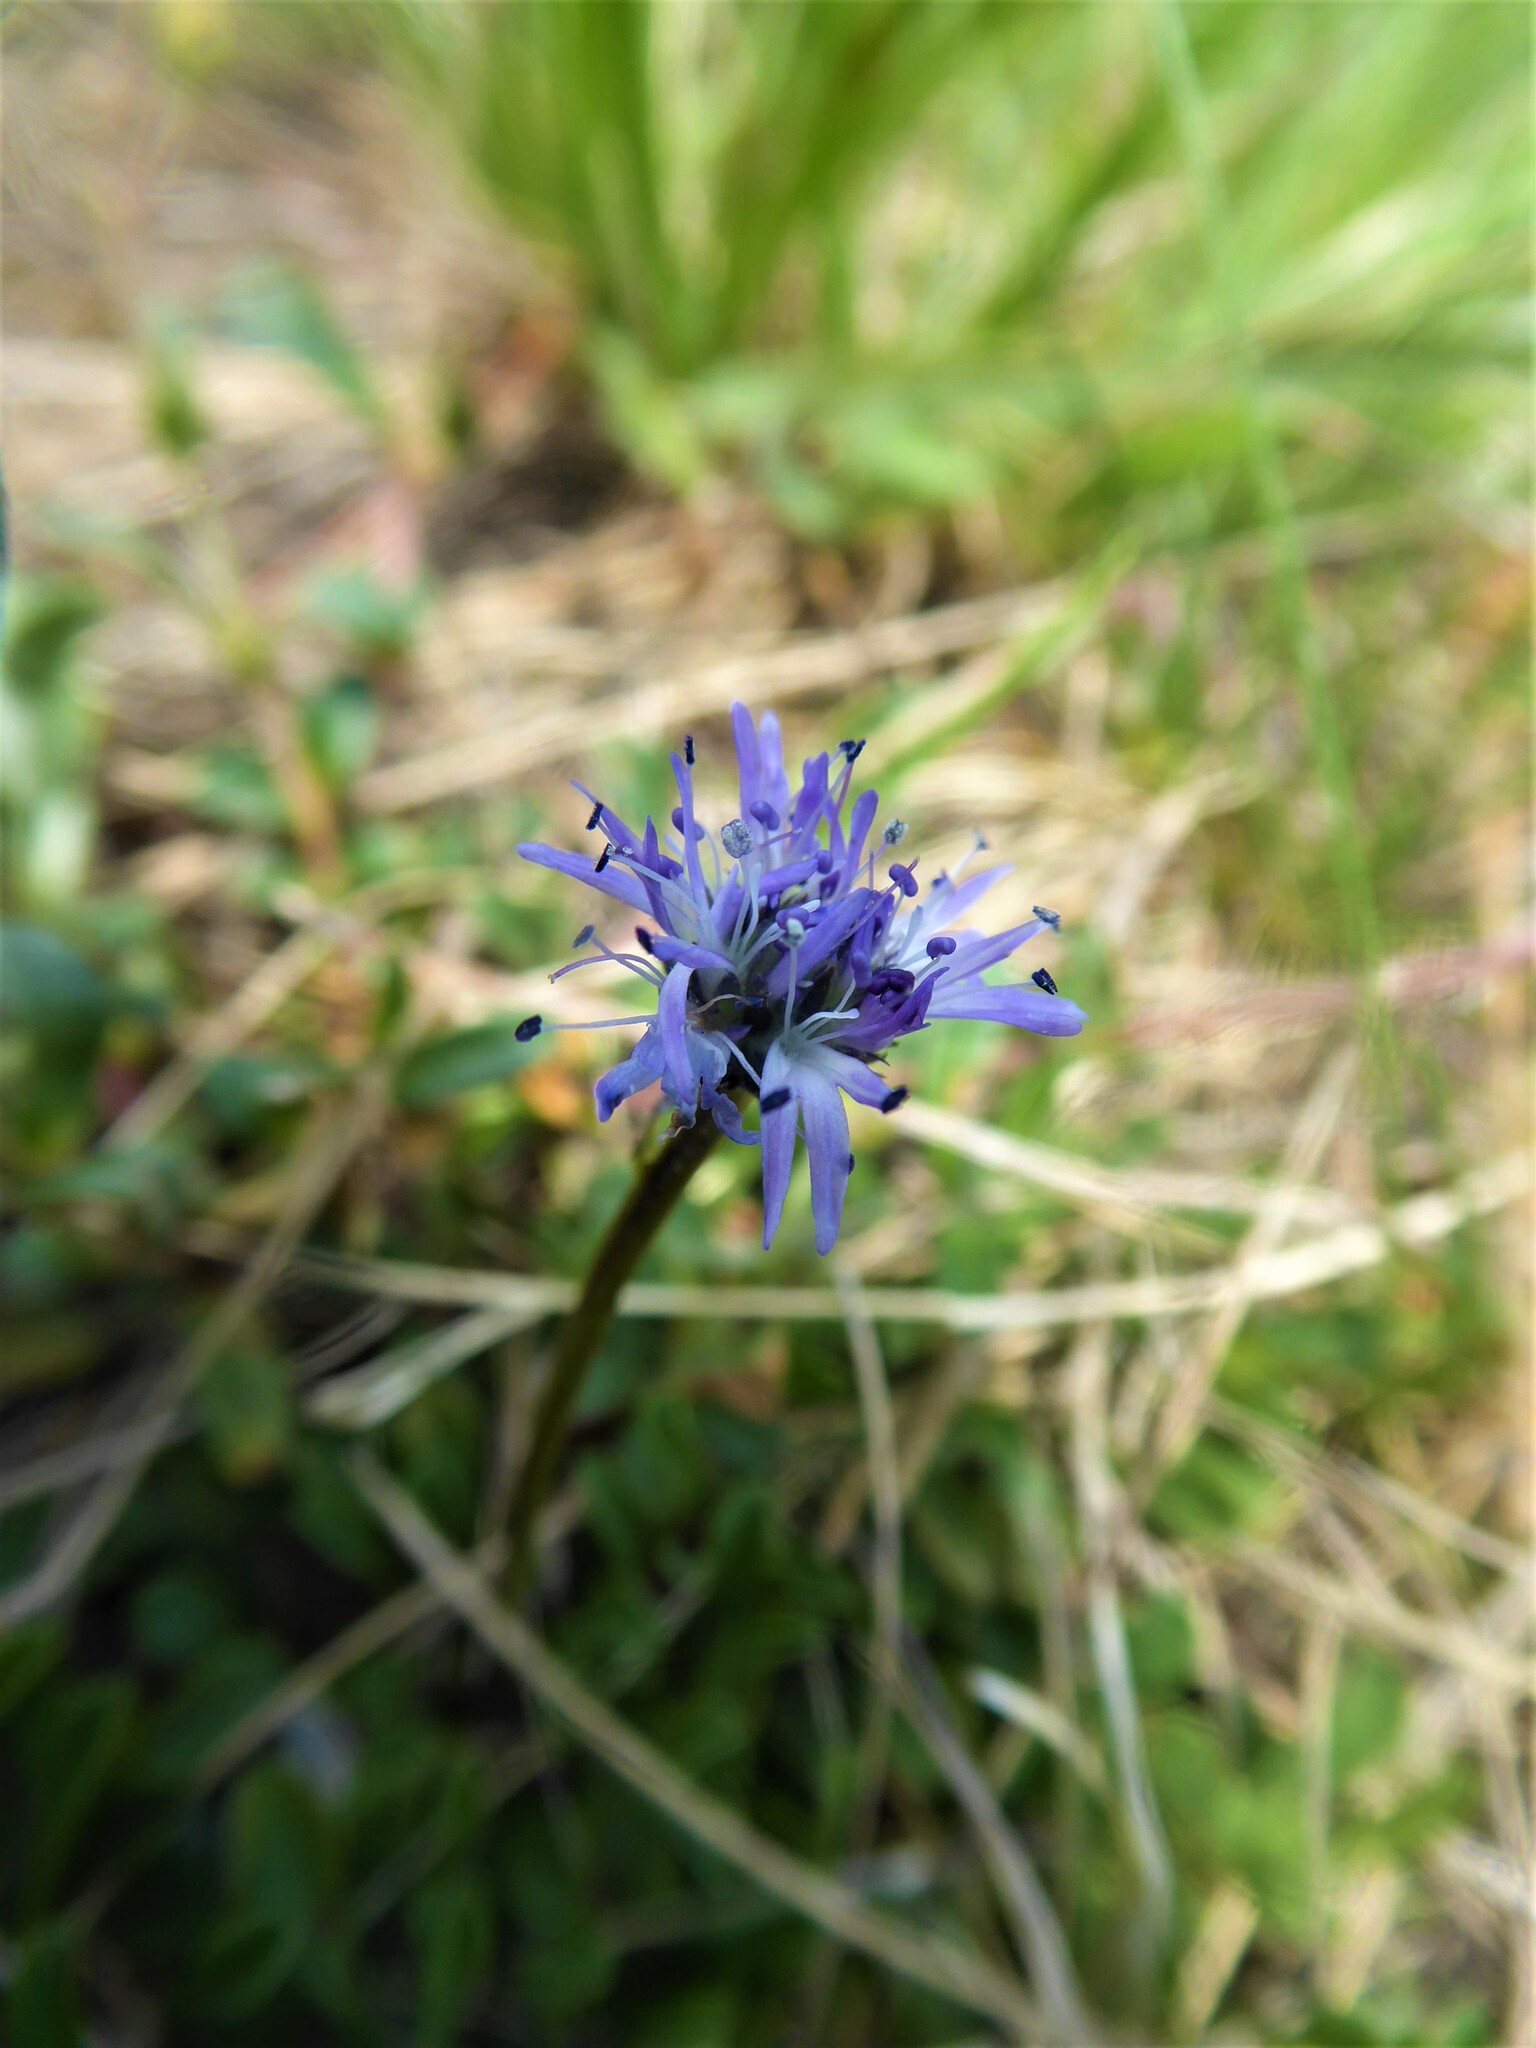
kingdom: Plantae
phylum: Tracheophyta
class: Magnoliopsida
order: Lamiales
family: Plantaginaceae
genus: Globularia
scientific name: Globularia cordifolia
